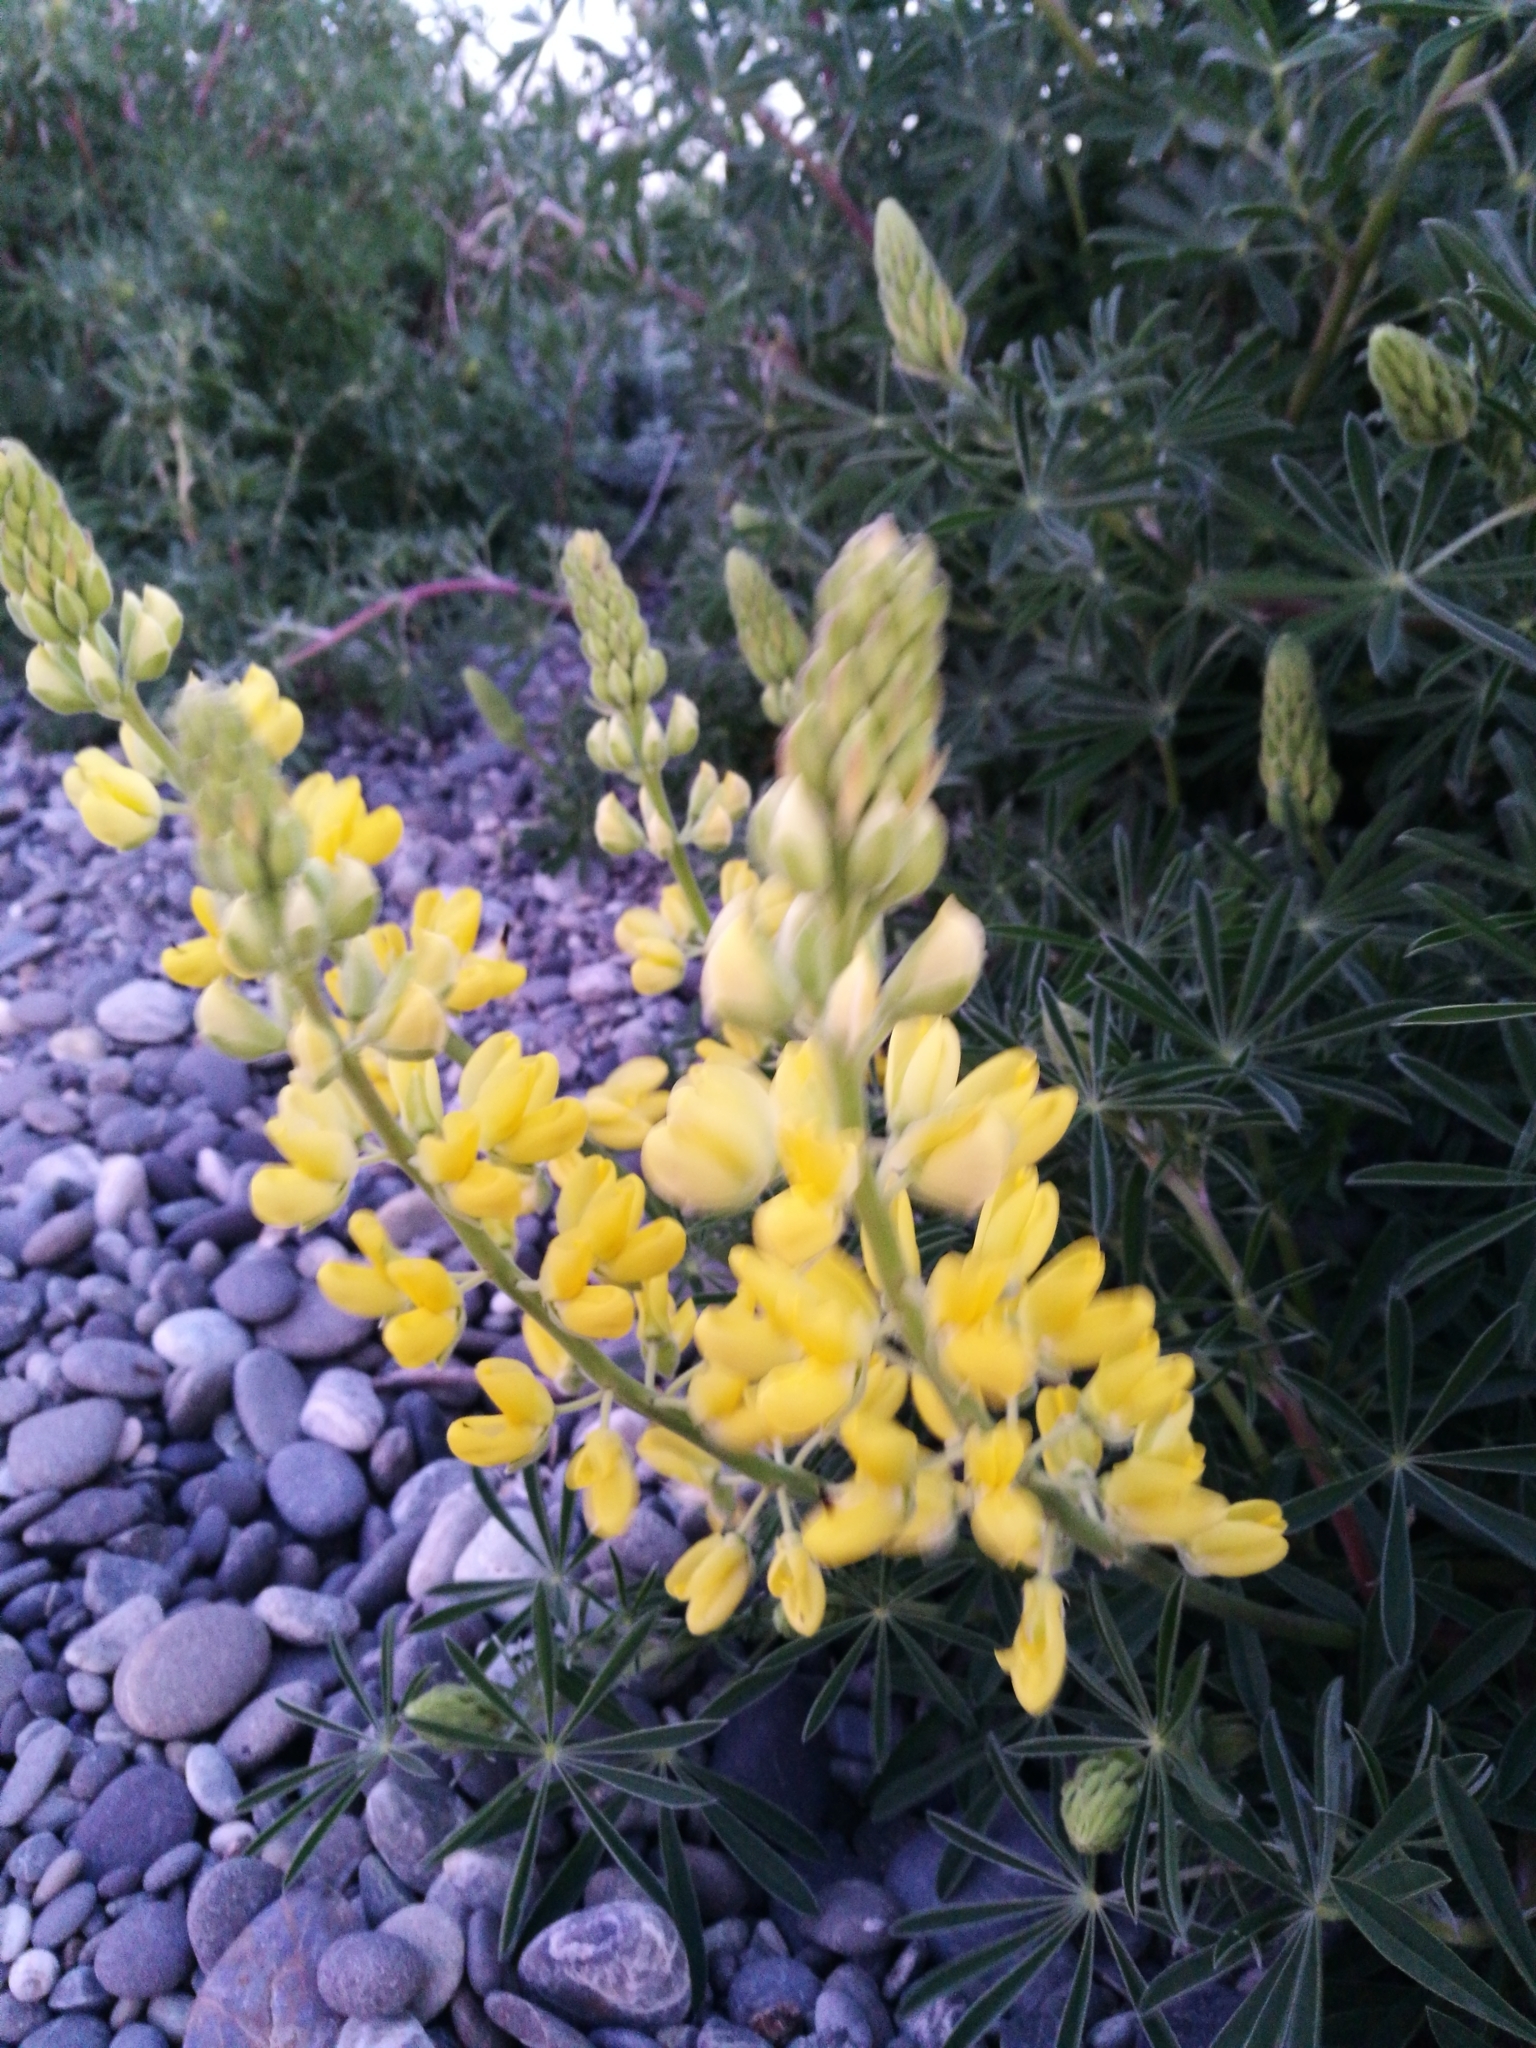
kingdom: Plantae
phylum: Tracheophyta
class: Magnoliopsida
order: Fabales
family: Fabaceae
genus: Lupinus
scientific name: Lupinus arboreus
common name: Yellow bush lupine
